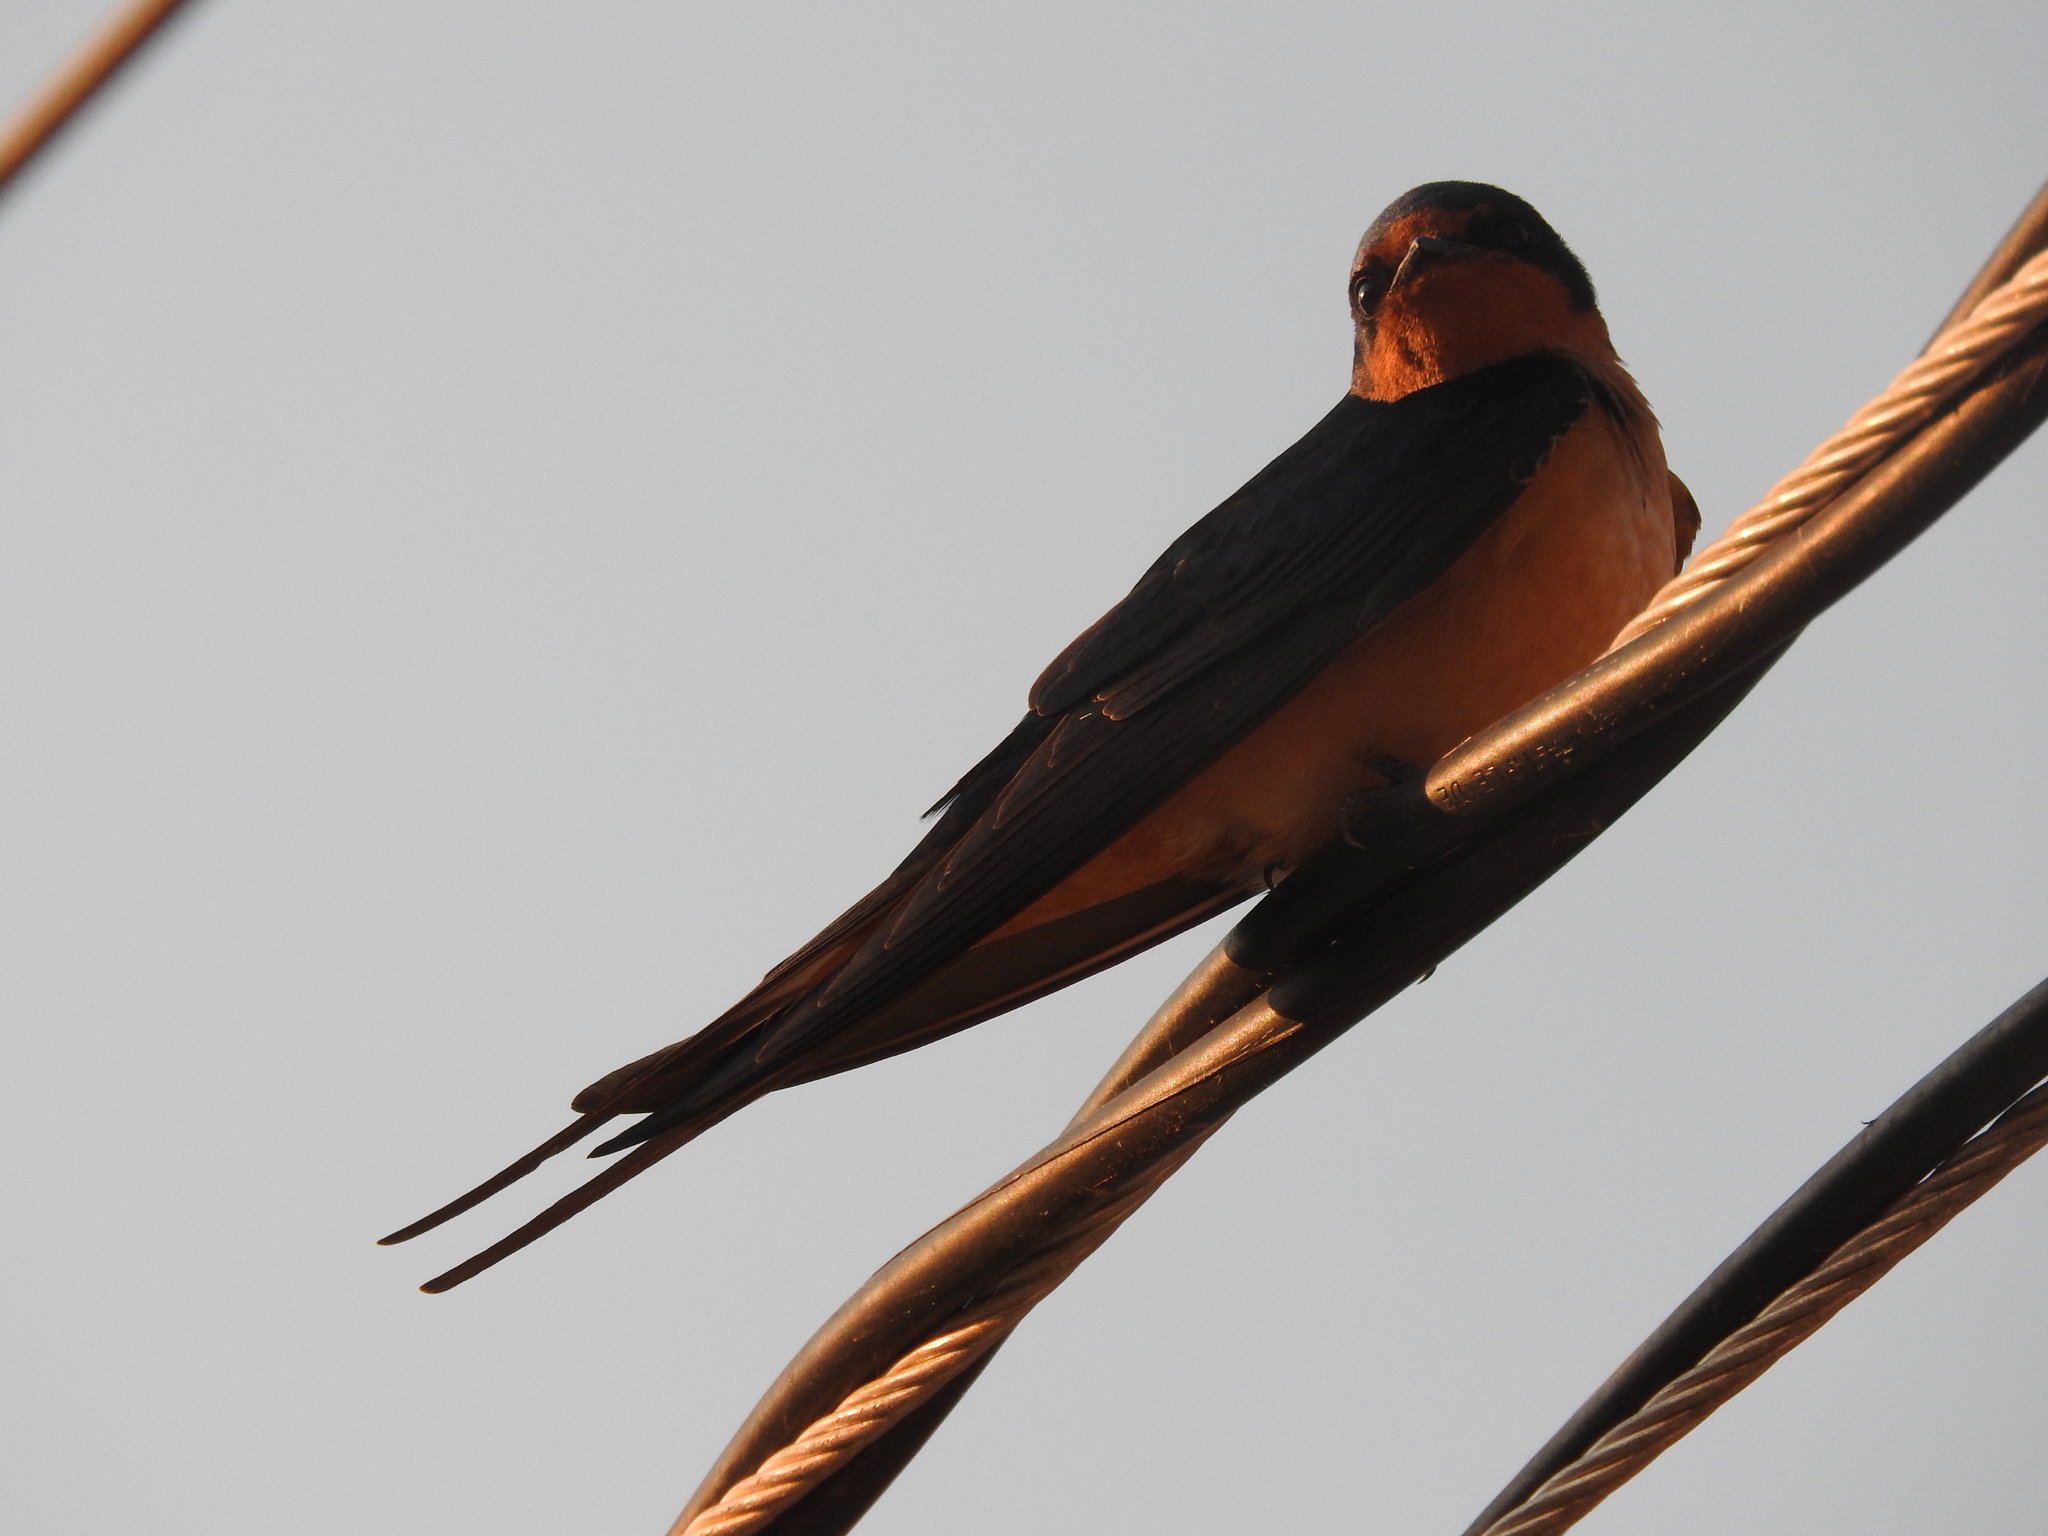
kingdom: Animalia
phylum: Chordata
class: Aves
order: Passeriformes
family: Hirundinidae
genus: Hirundo
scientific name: Hirundo rustica
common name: Barn swallow
